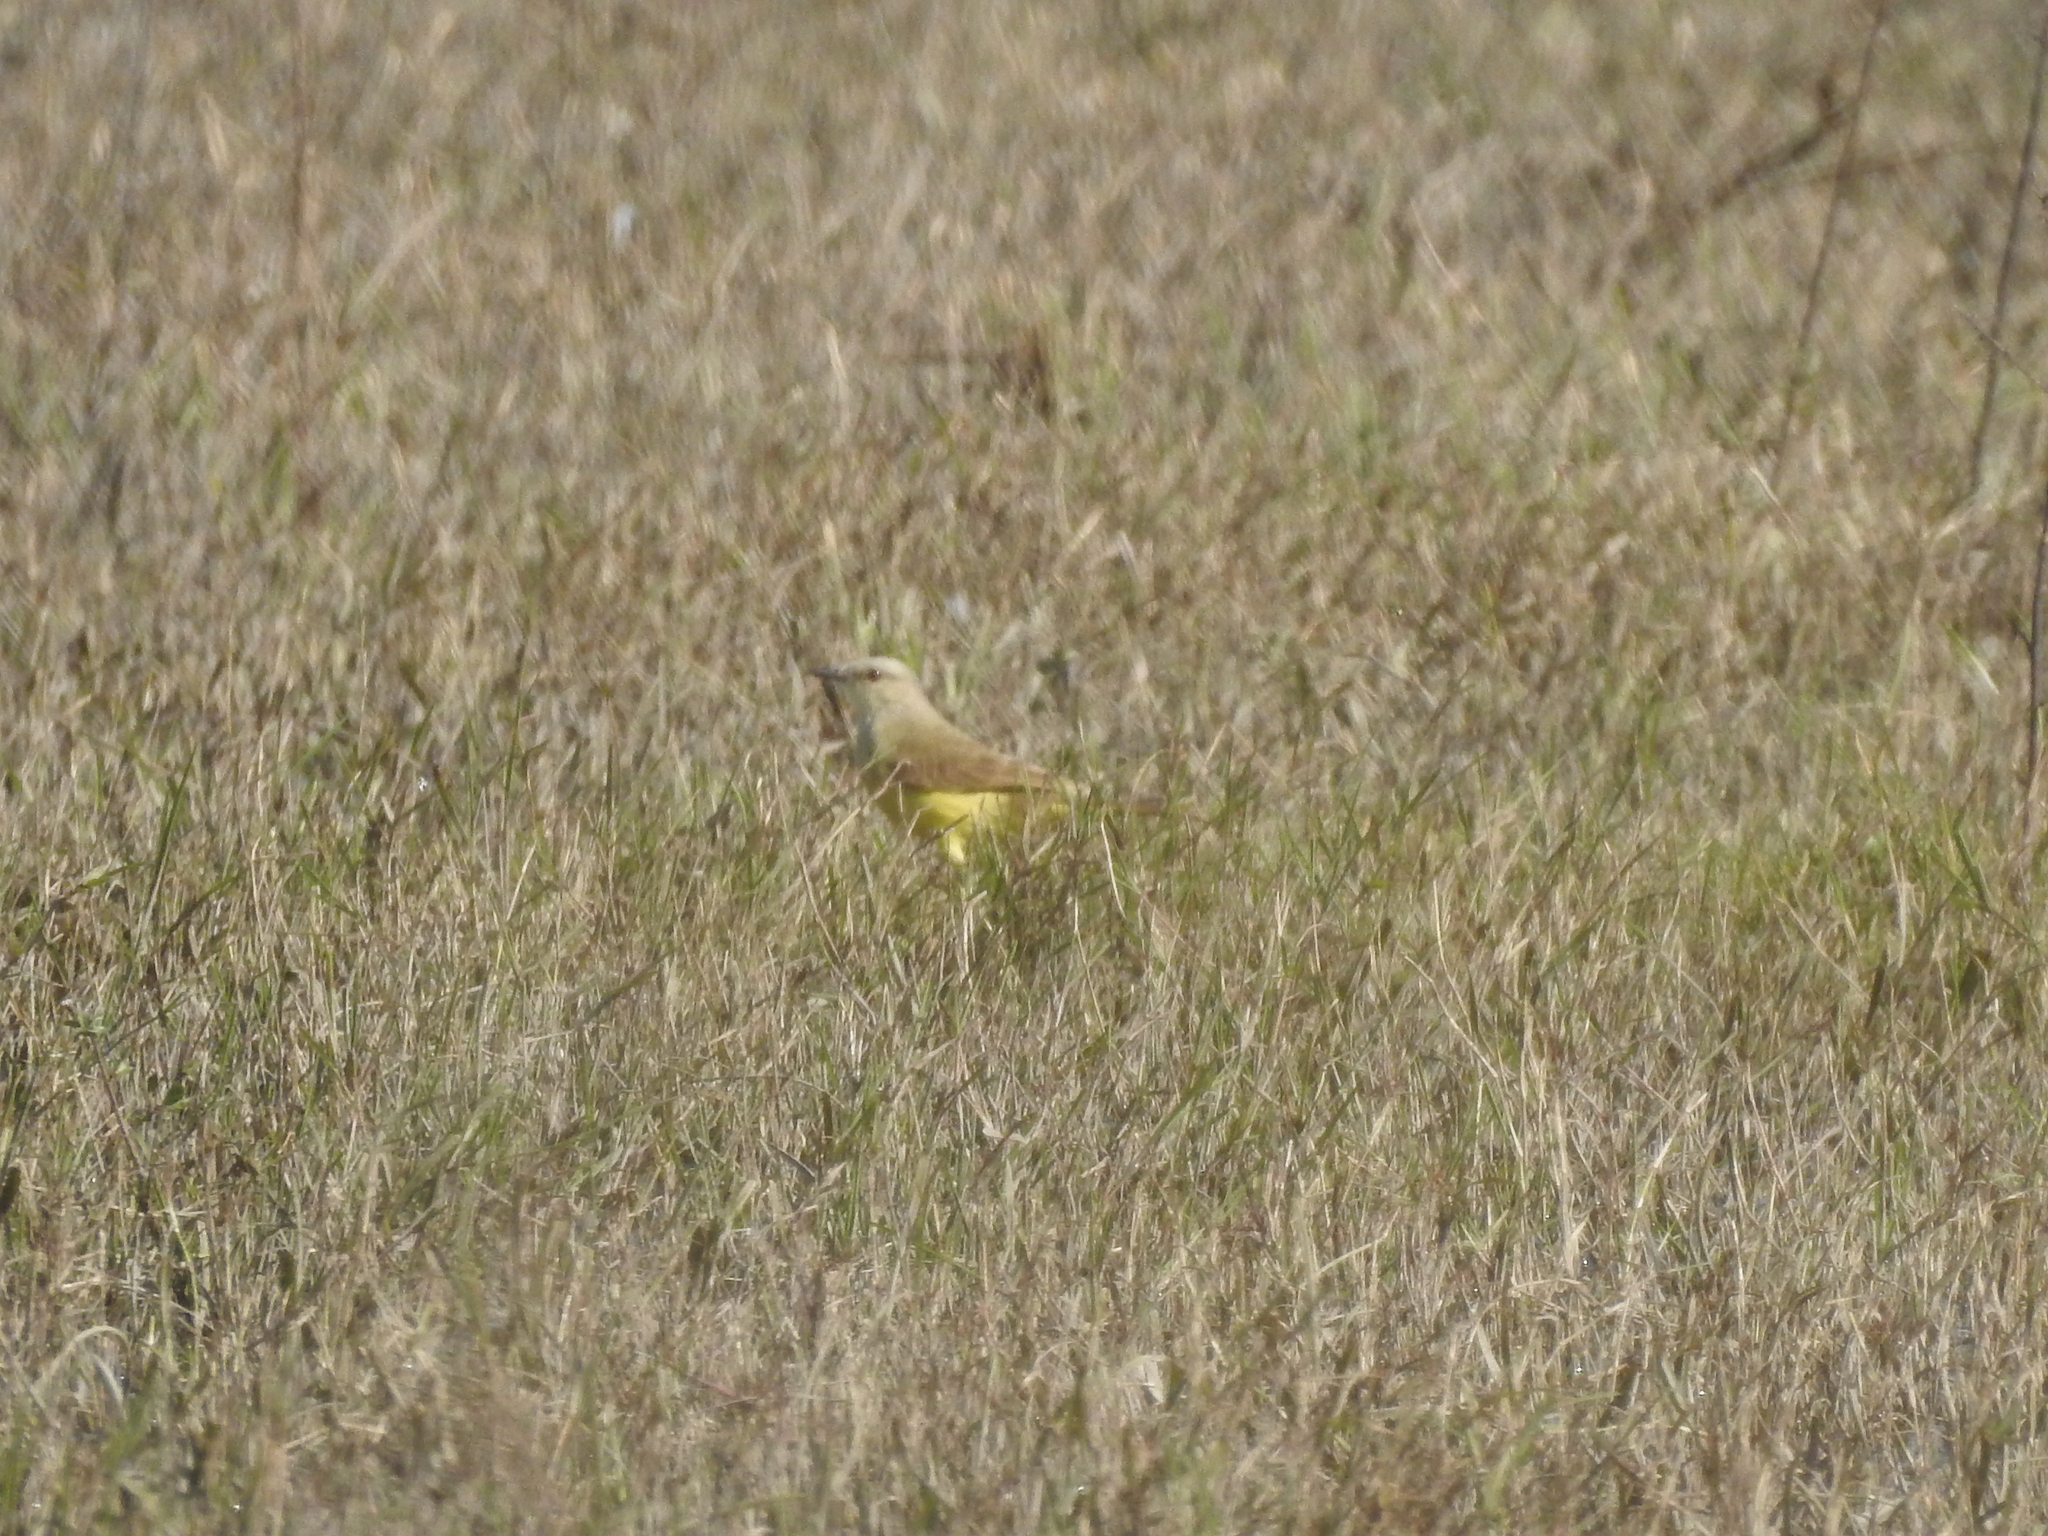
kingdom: Animalia
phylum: Chordata
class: Aves
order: Passeriformes
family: Tyrannidae
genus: Machetornis
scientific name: Machetornis rixosa
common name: Cattle tyrant
